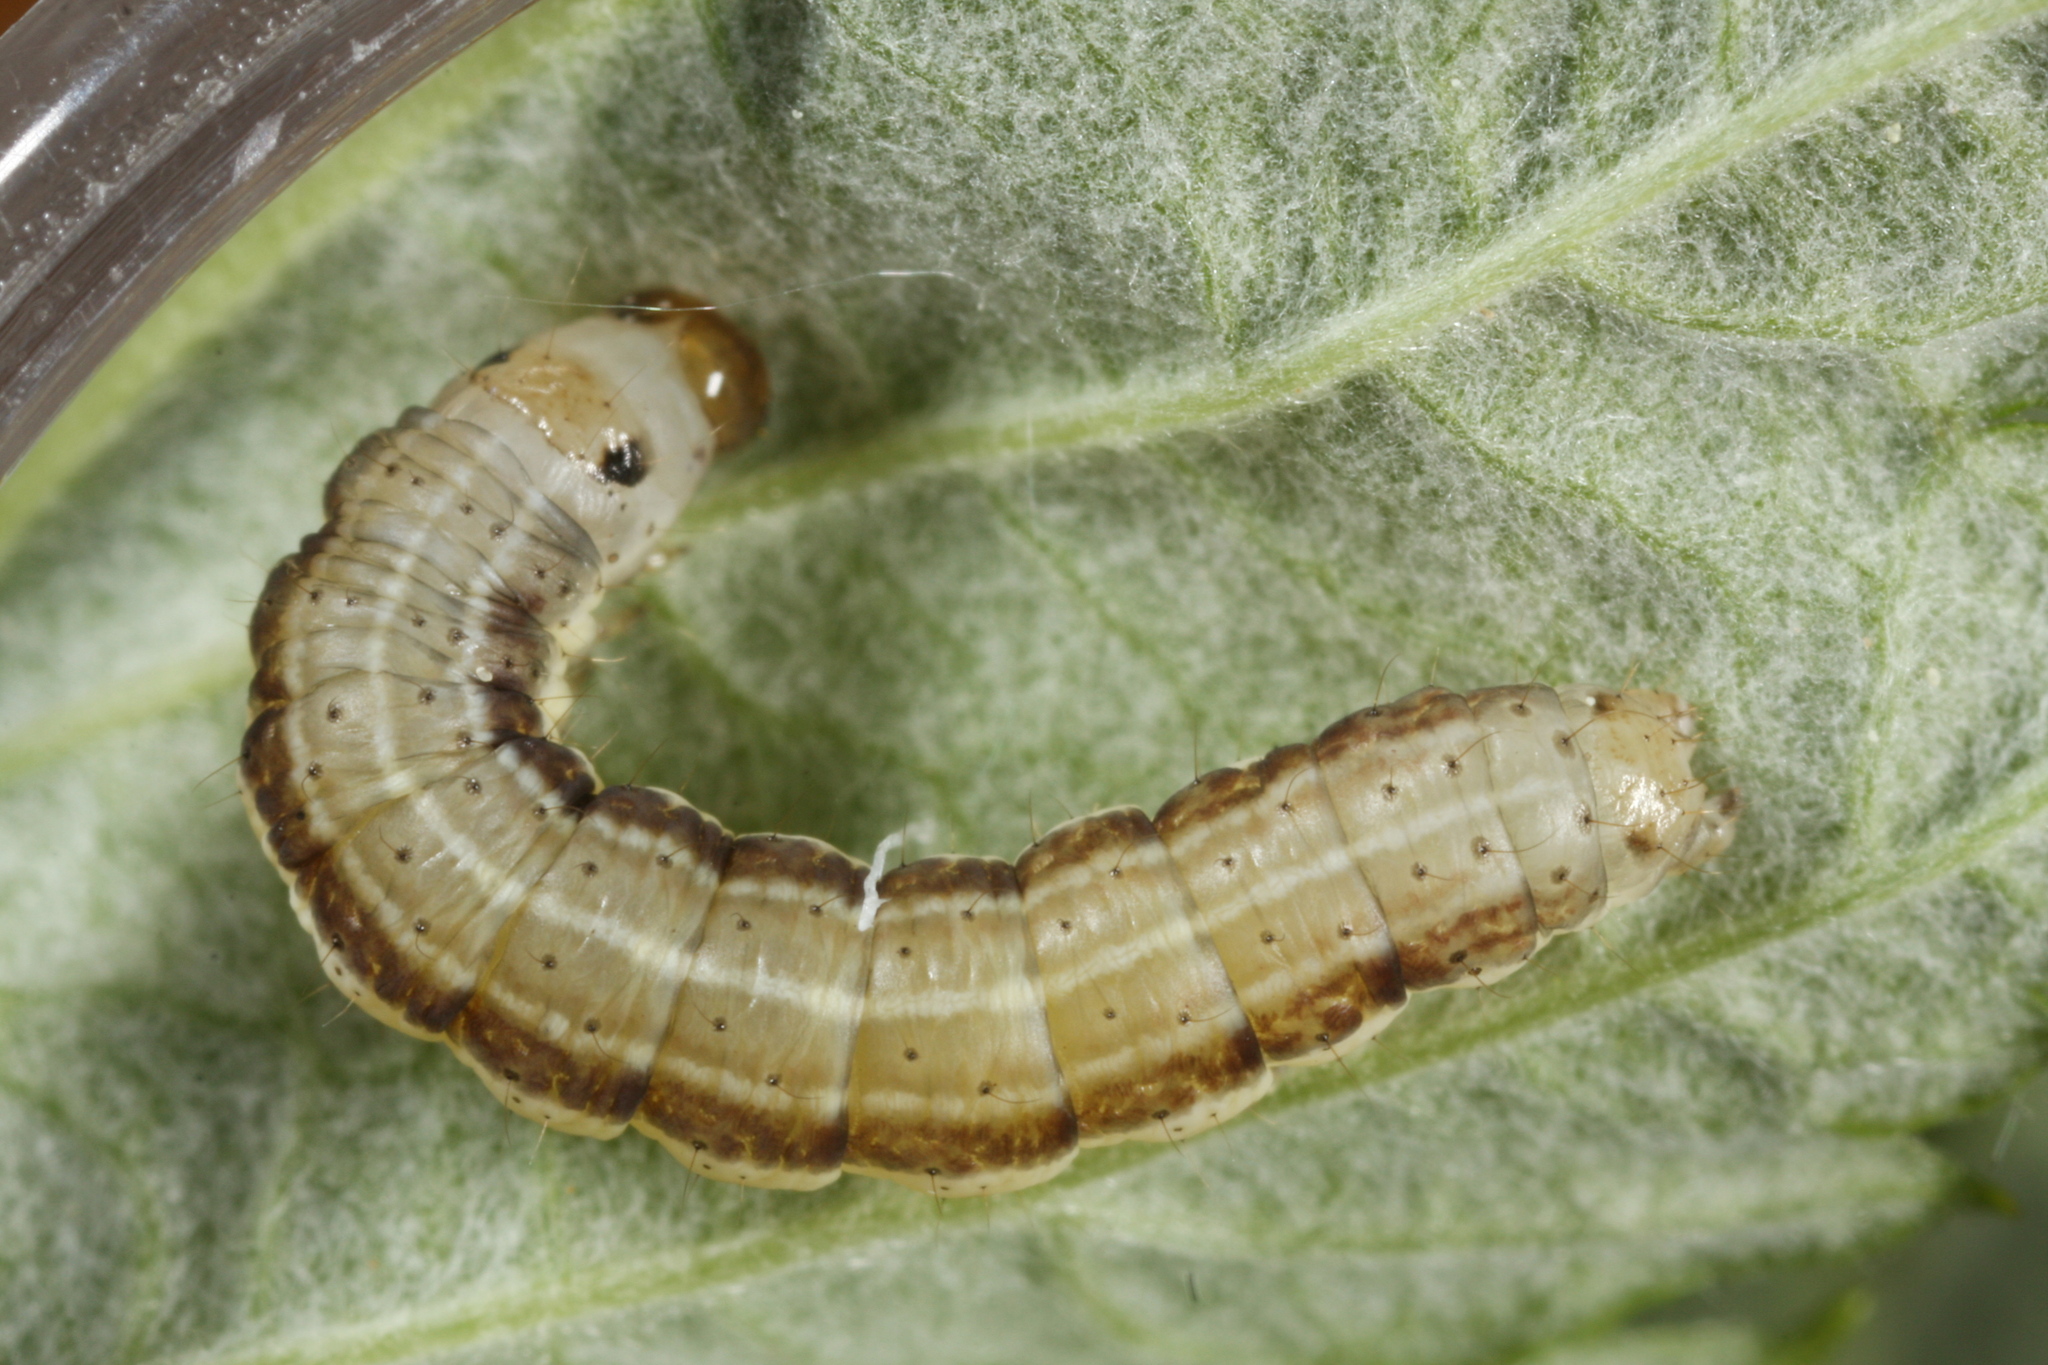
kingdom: Animalia
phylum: Arthropoda
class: Insecta
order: Lepidoptera
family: Noctuidae
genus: Loscopia
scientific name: Loscopia scolopacina
